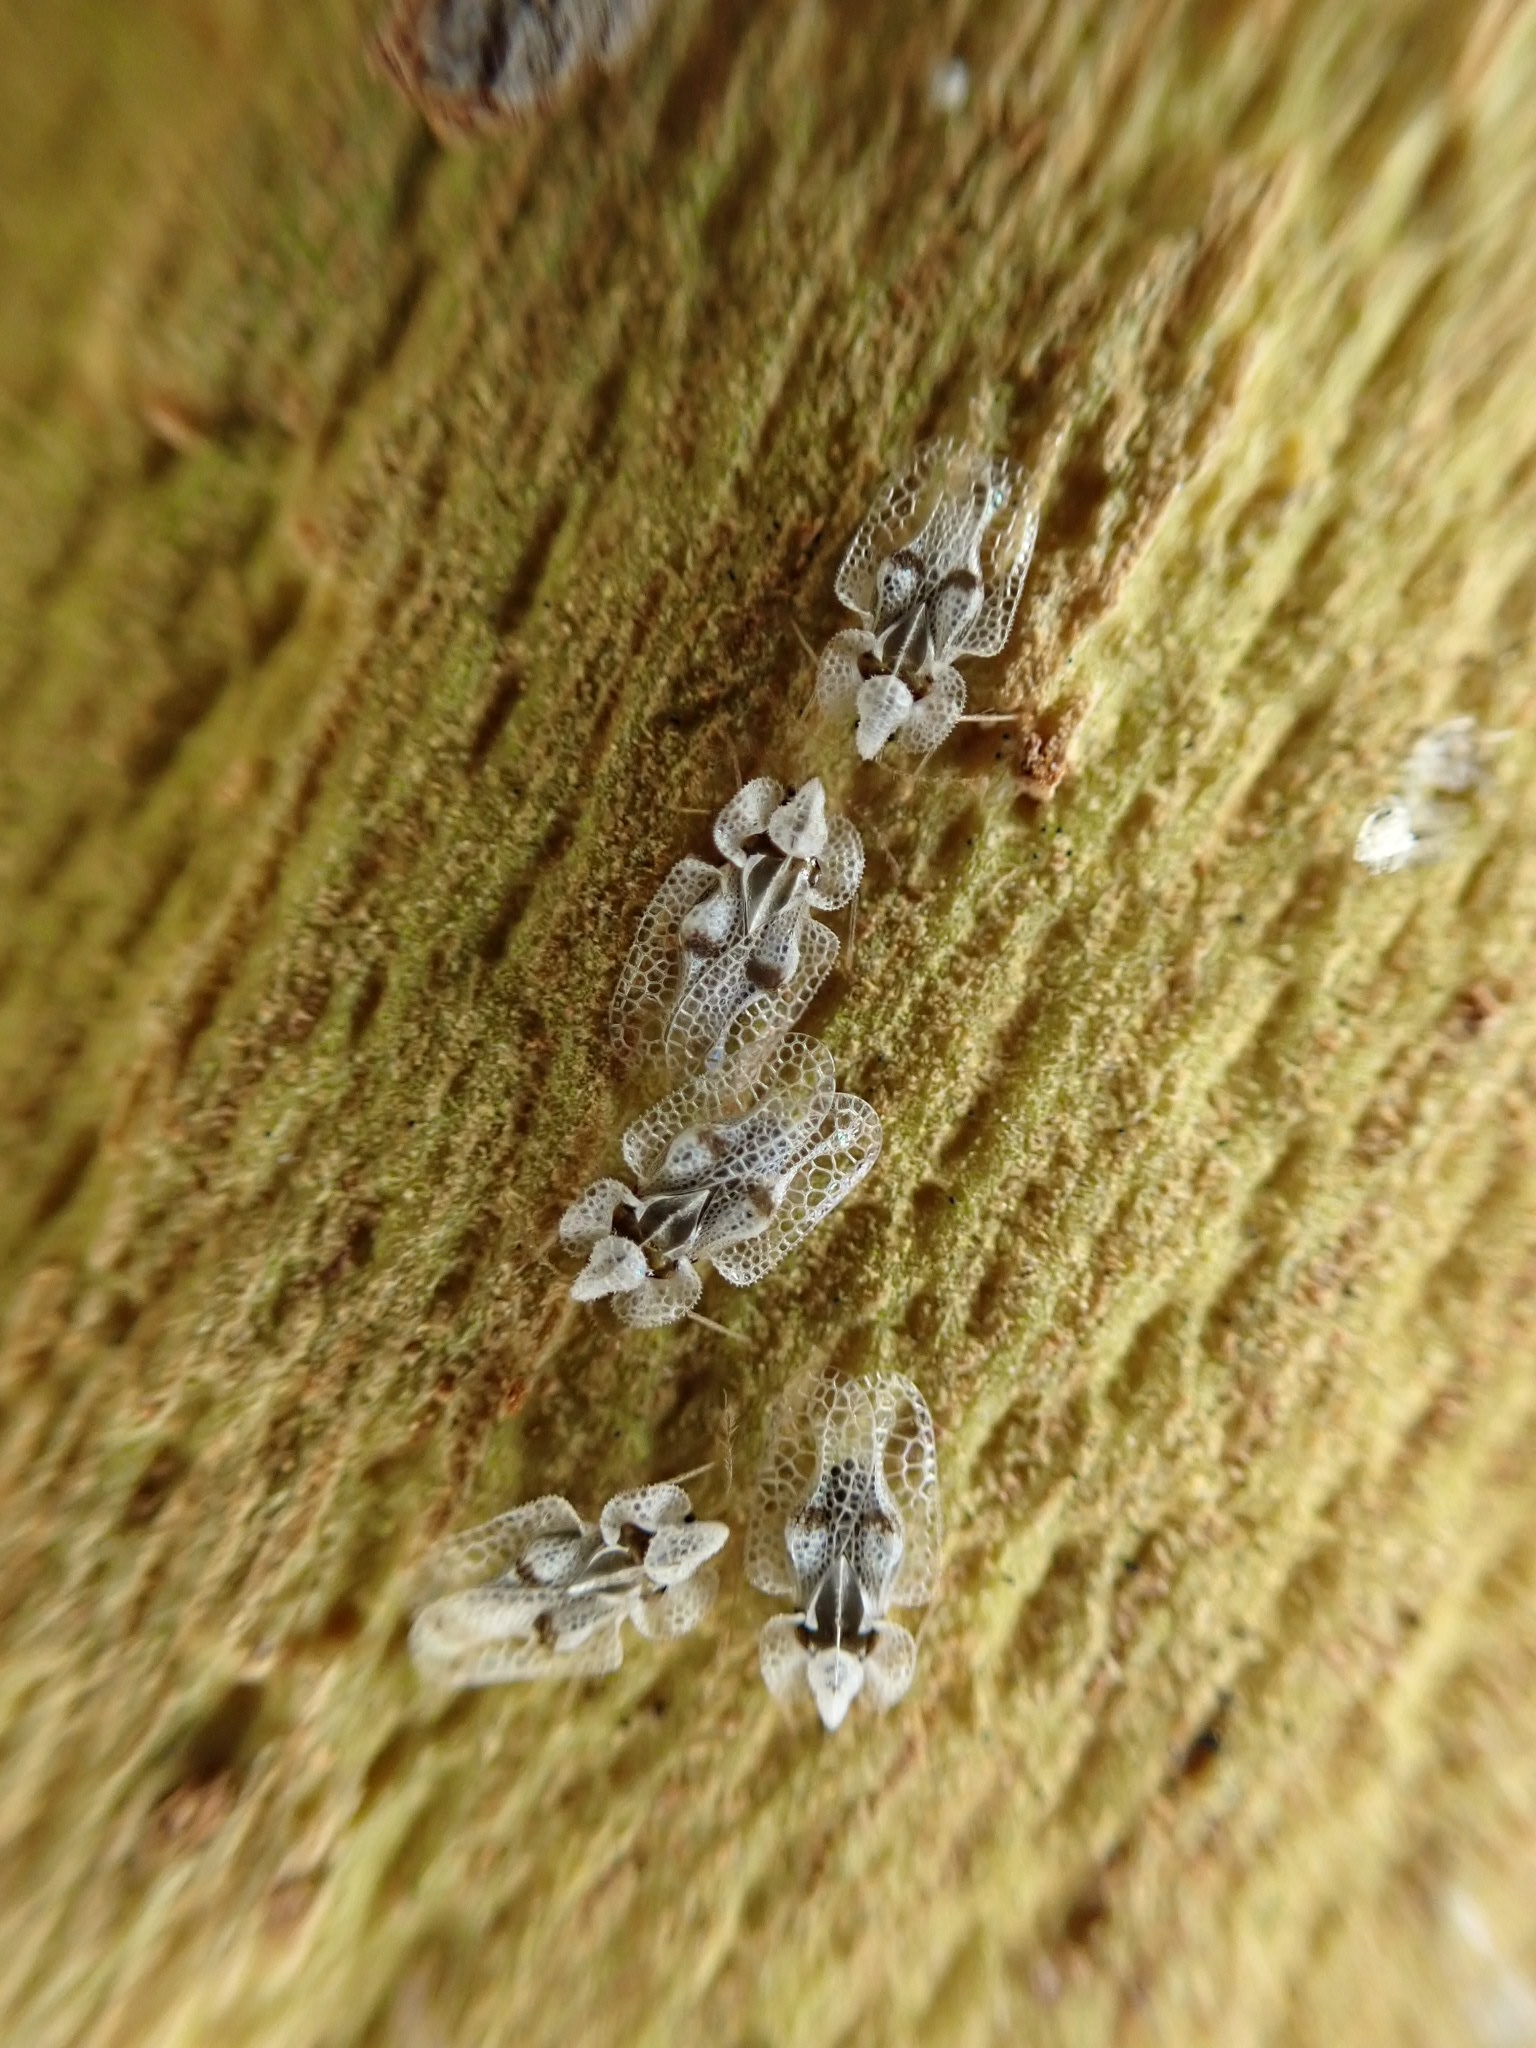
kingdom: Animalia
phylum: Arthropoda
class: Insecta
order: Hemiptera
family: Tingidae
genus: Corythucha
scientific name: Corythucha ciliata
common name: Sycamore lace bug
